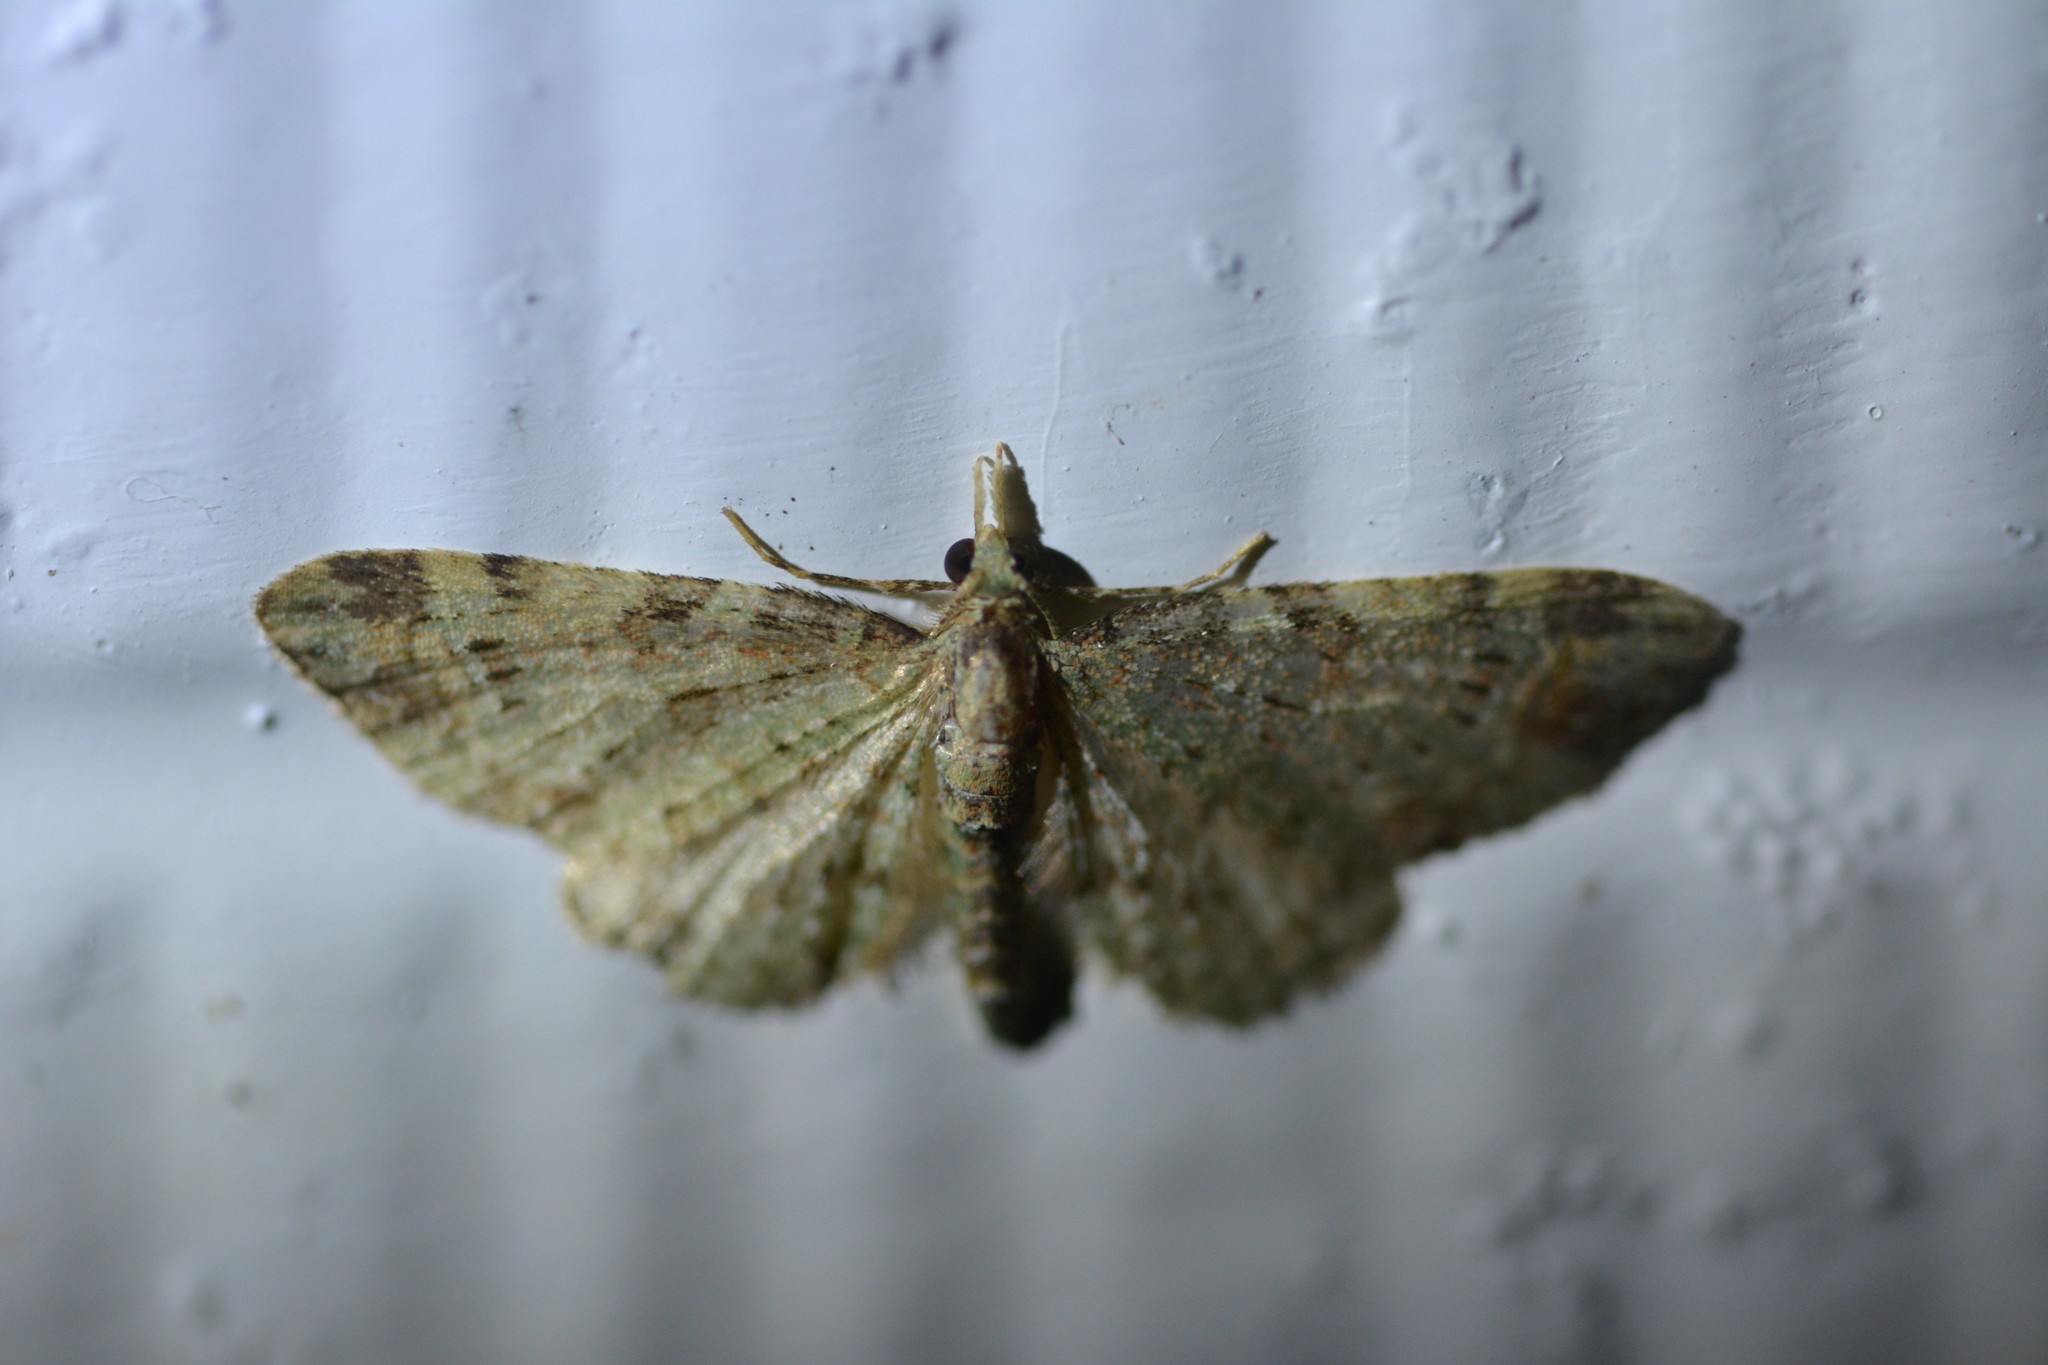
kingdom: Animalia
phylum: Arthropoda
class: Insecta
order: Lepidoptera
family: Geometridae
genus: Idaea
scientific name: Idaea mutanda
